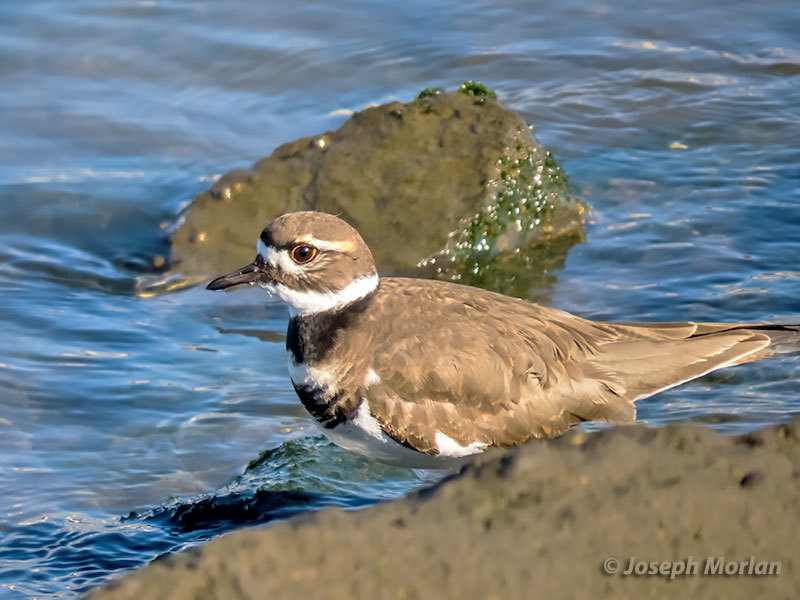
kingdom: Animalia
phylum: Chordata
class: Aves
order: Charadriiformes
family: Charadriidae
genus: Charadrius
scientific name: Charadrius vociferus
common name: Killdeer
